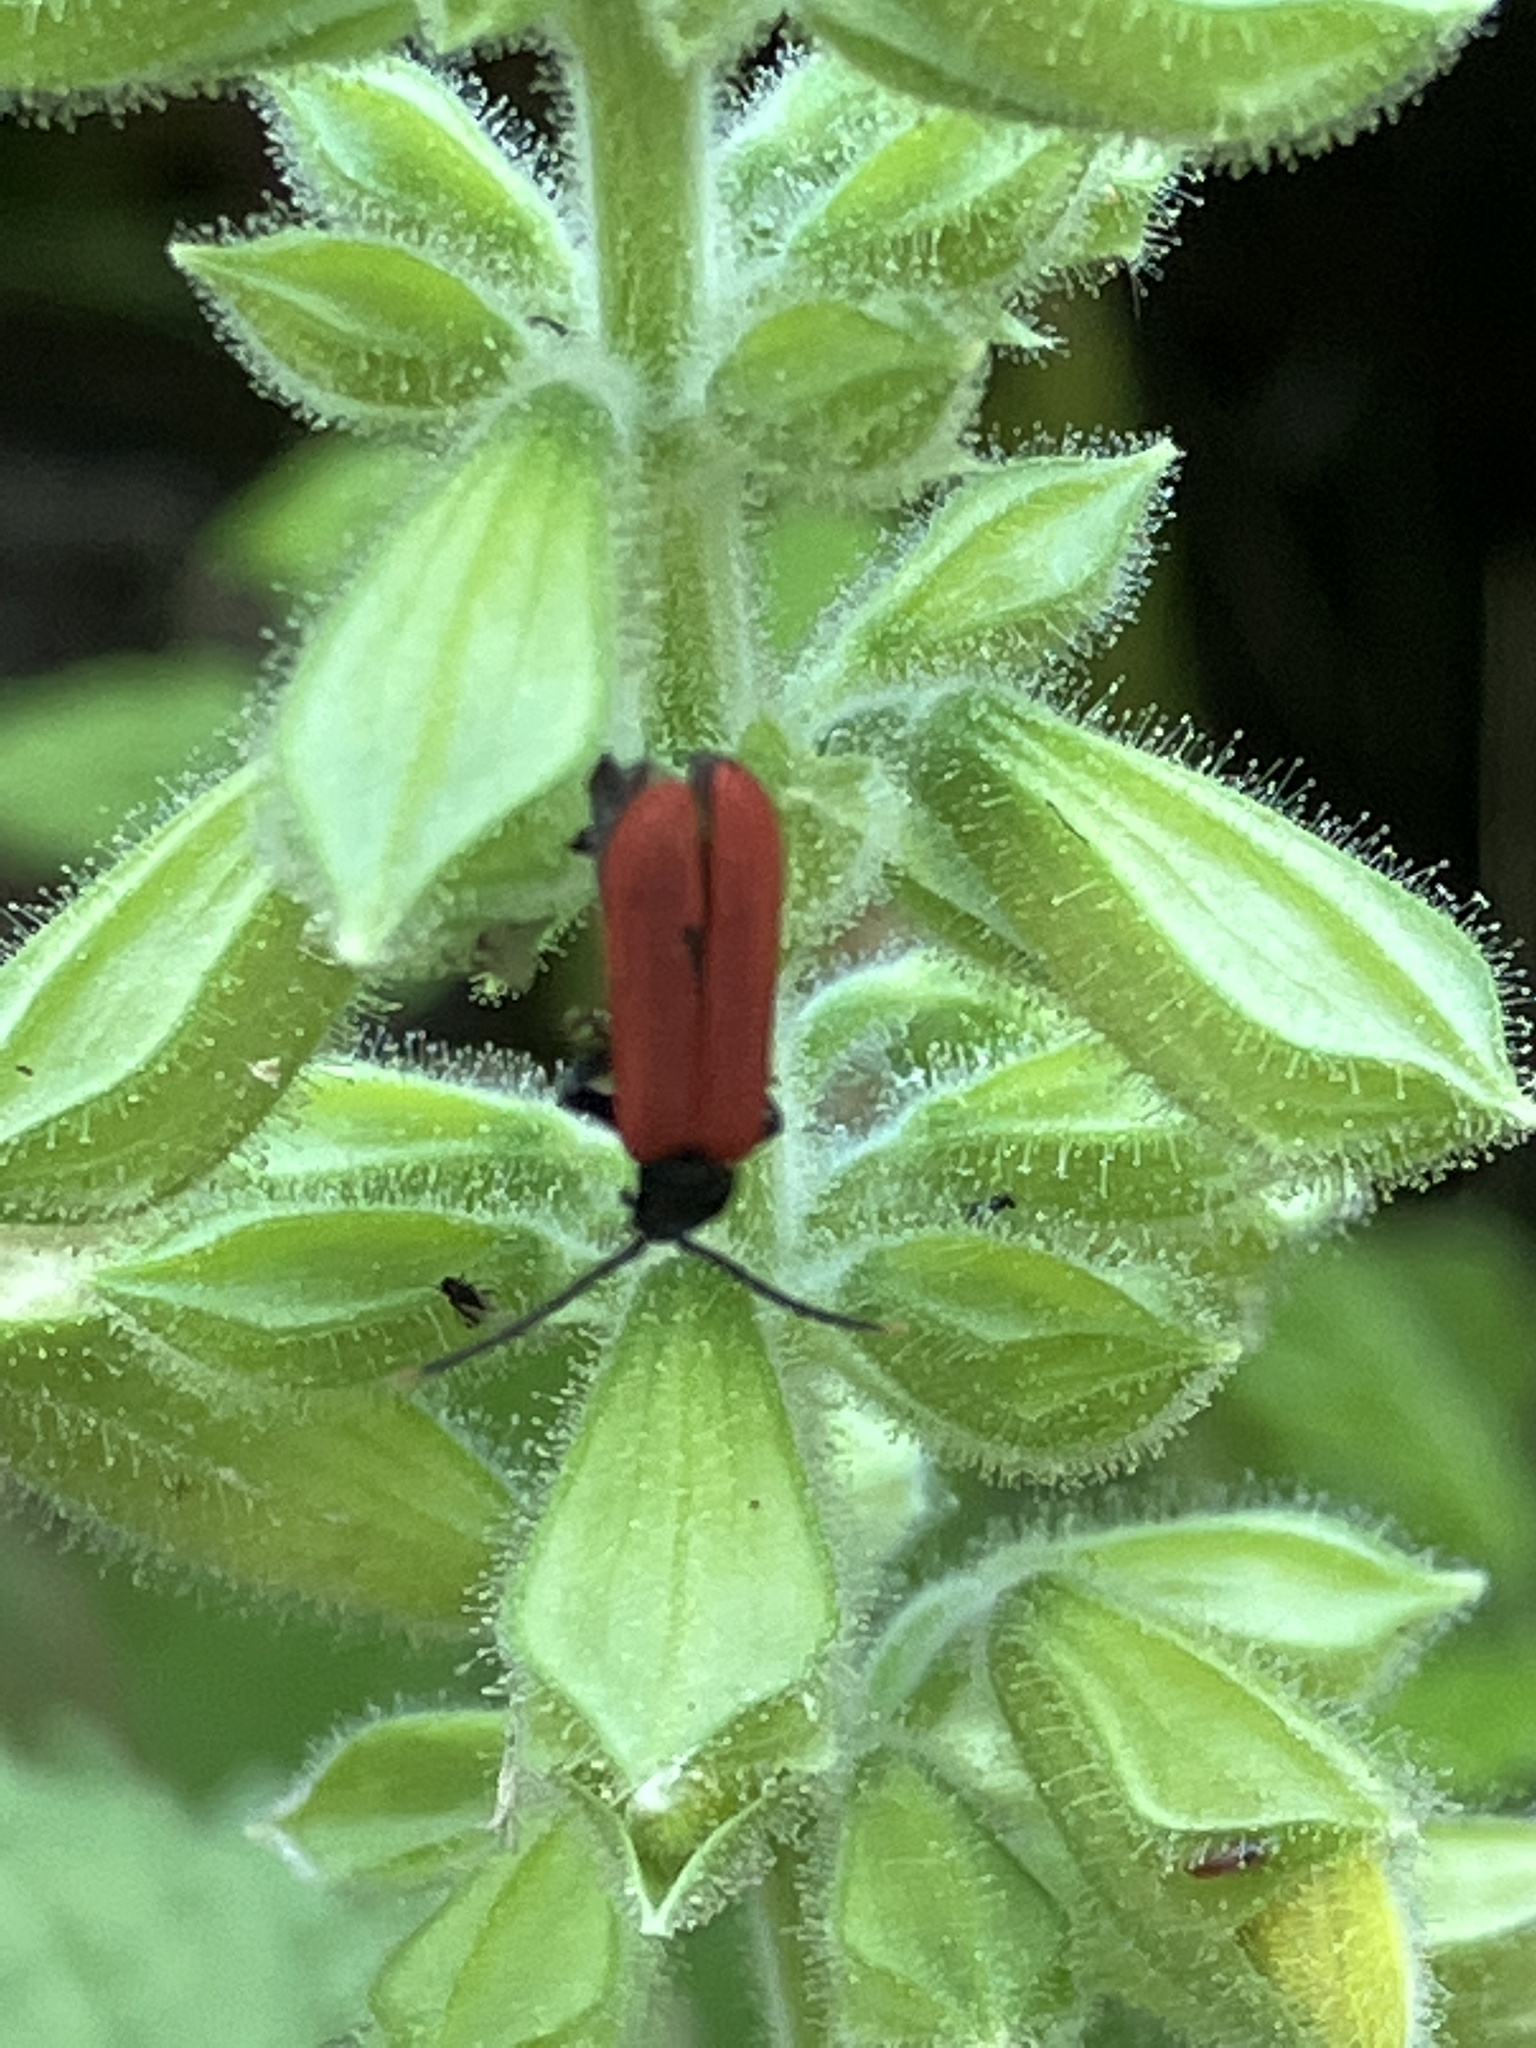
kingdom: Animalia
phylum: Arthropoda
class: Insecta
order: Coleoptera
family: Lycidae
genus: Platycis
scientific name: Platycis minutus
